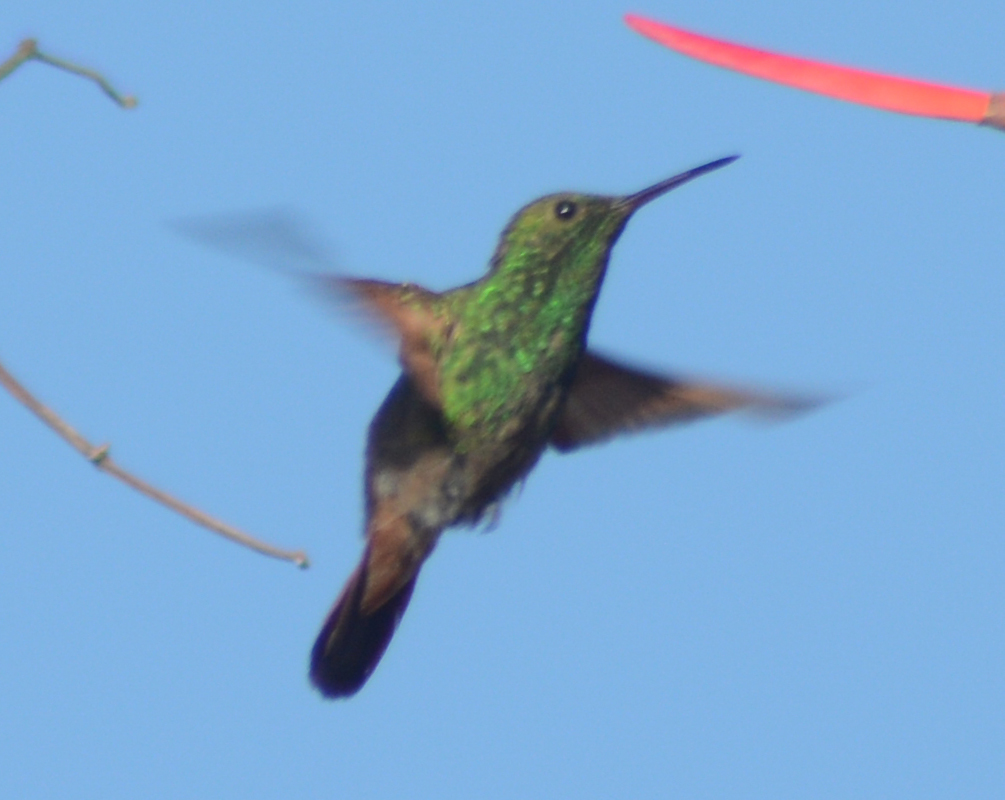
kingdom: Animalia
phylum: Chordata
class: Aves
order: Apodiformes
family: Trochilidae
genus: Saucerottia
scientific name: Saucerottia beryllina
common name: Berylline hummingbird
